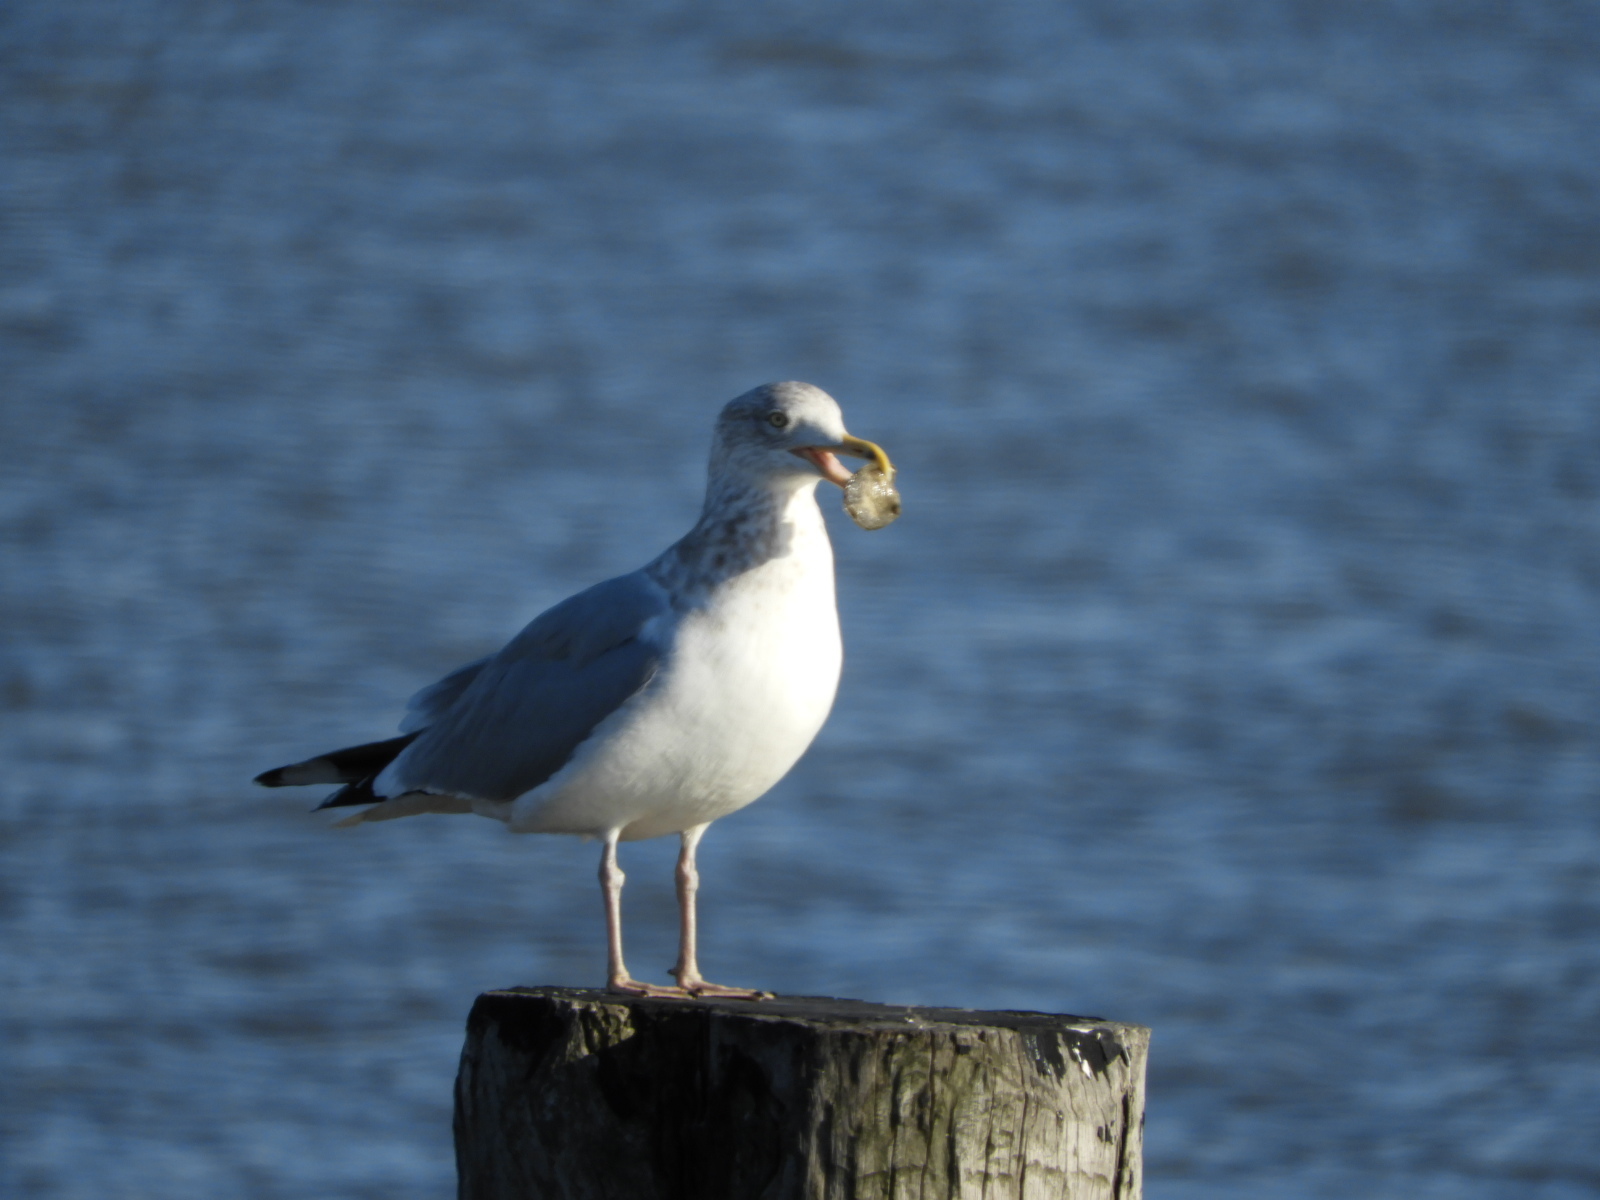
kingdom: Animalia
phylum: Chordata
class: Aves
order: Charadriiformes
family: Laridae
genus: Larus
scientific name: Larus argentatus
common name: Herring gull
